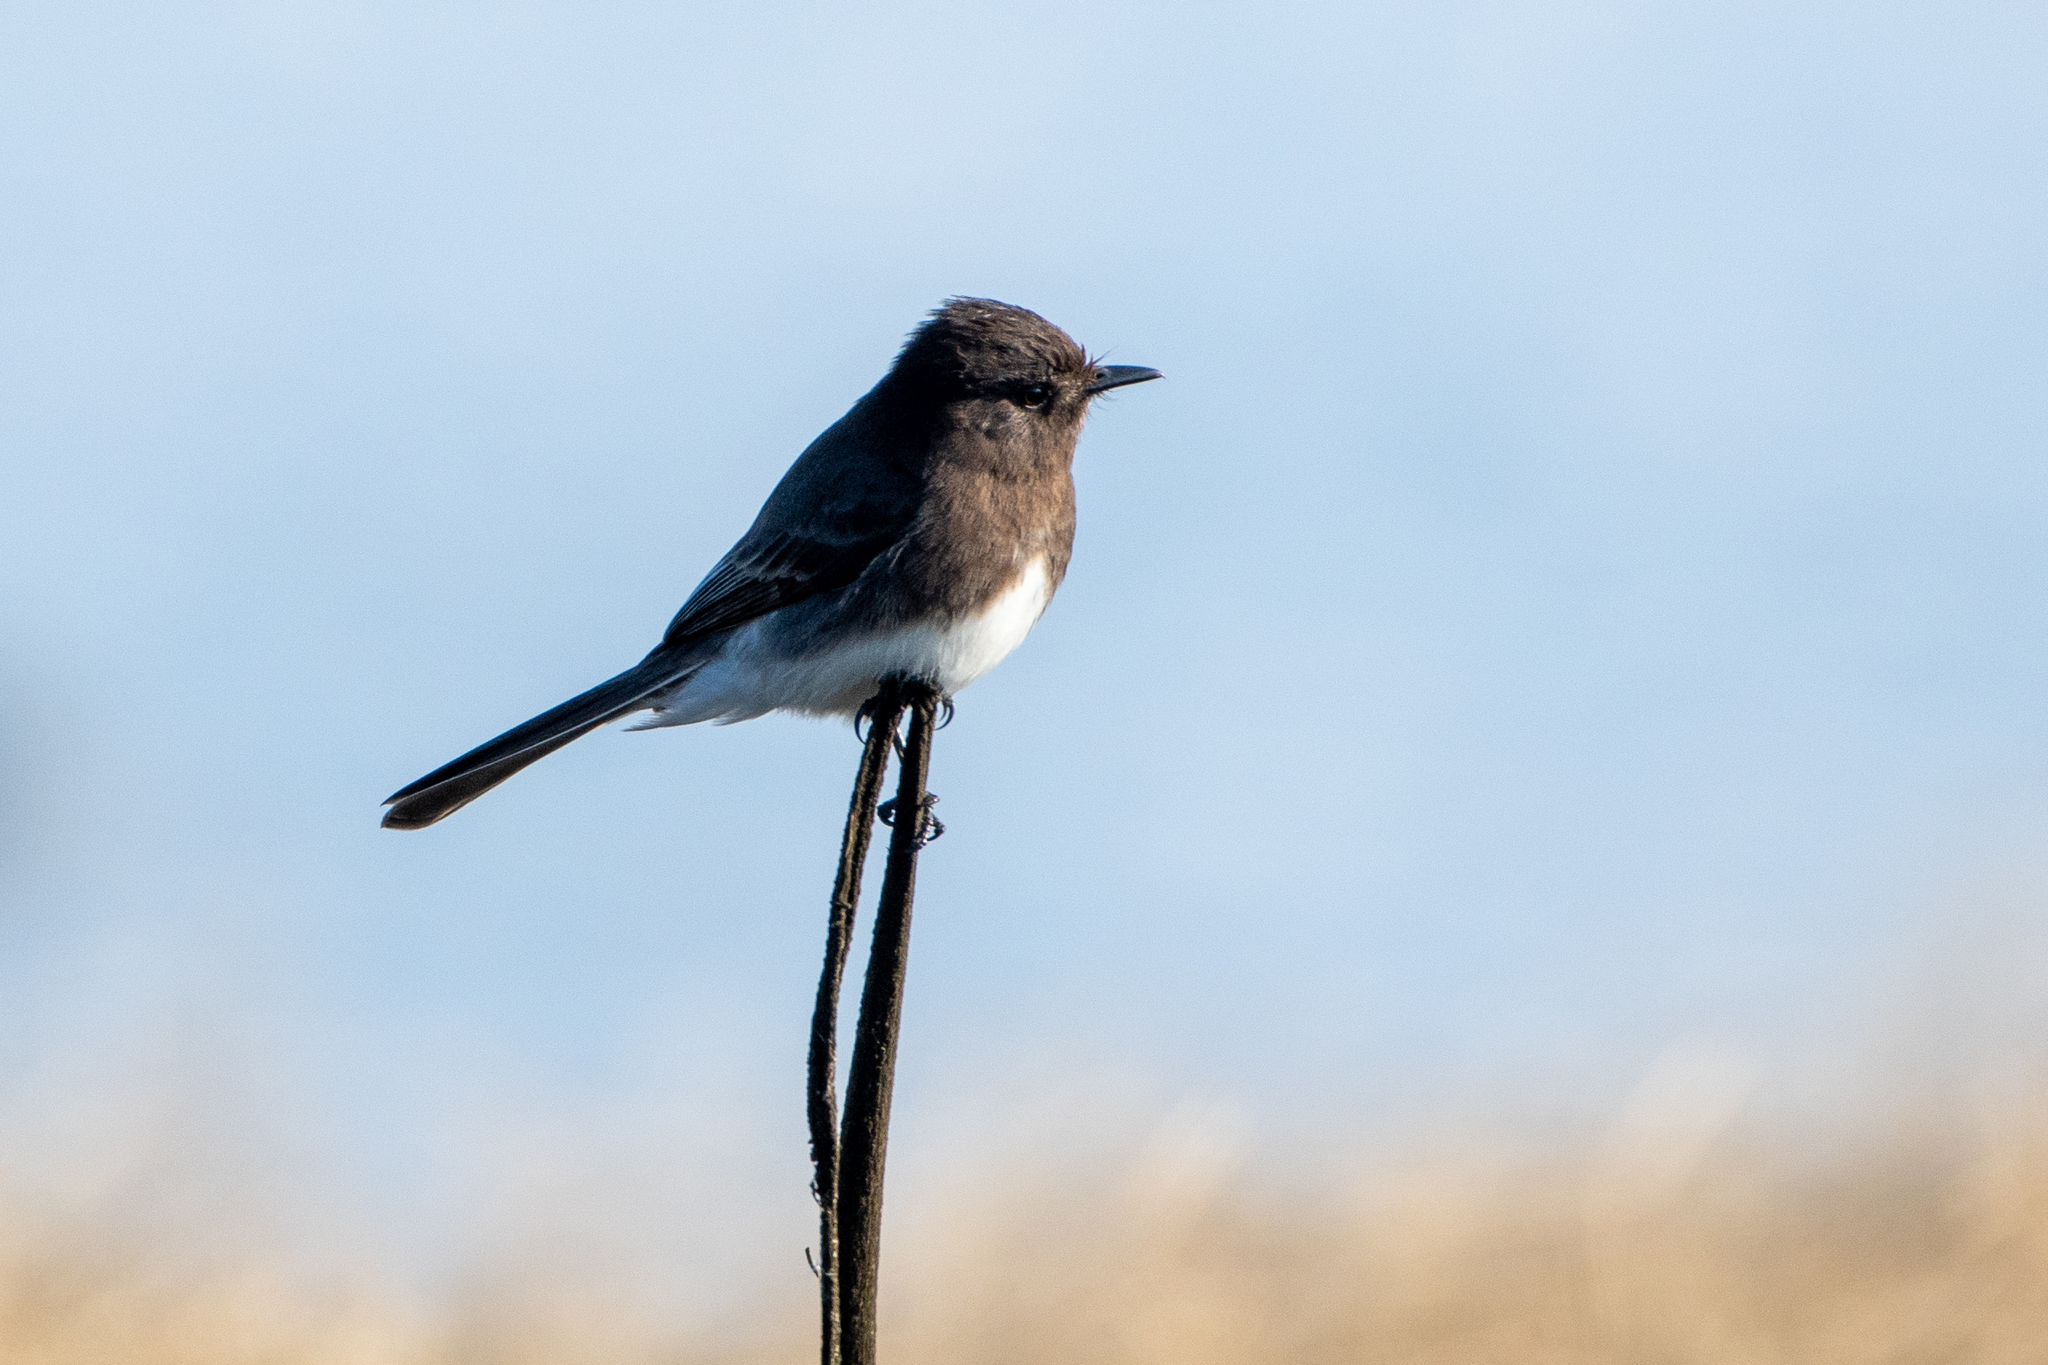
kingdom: Animalia
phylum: Chordata
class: Aves
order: Passeriformes
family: Tyrannidae
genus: Sayornis
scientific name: Sayornis nigricans
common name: Black phoebe
